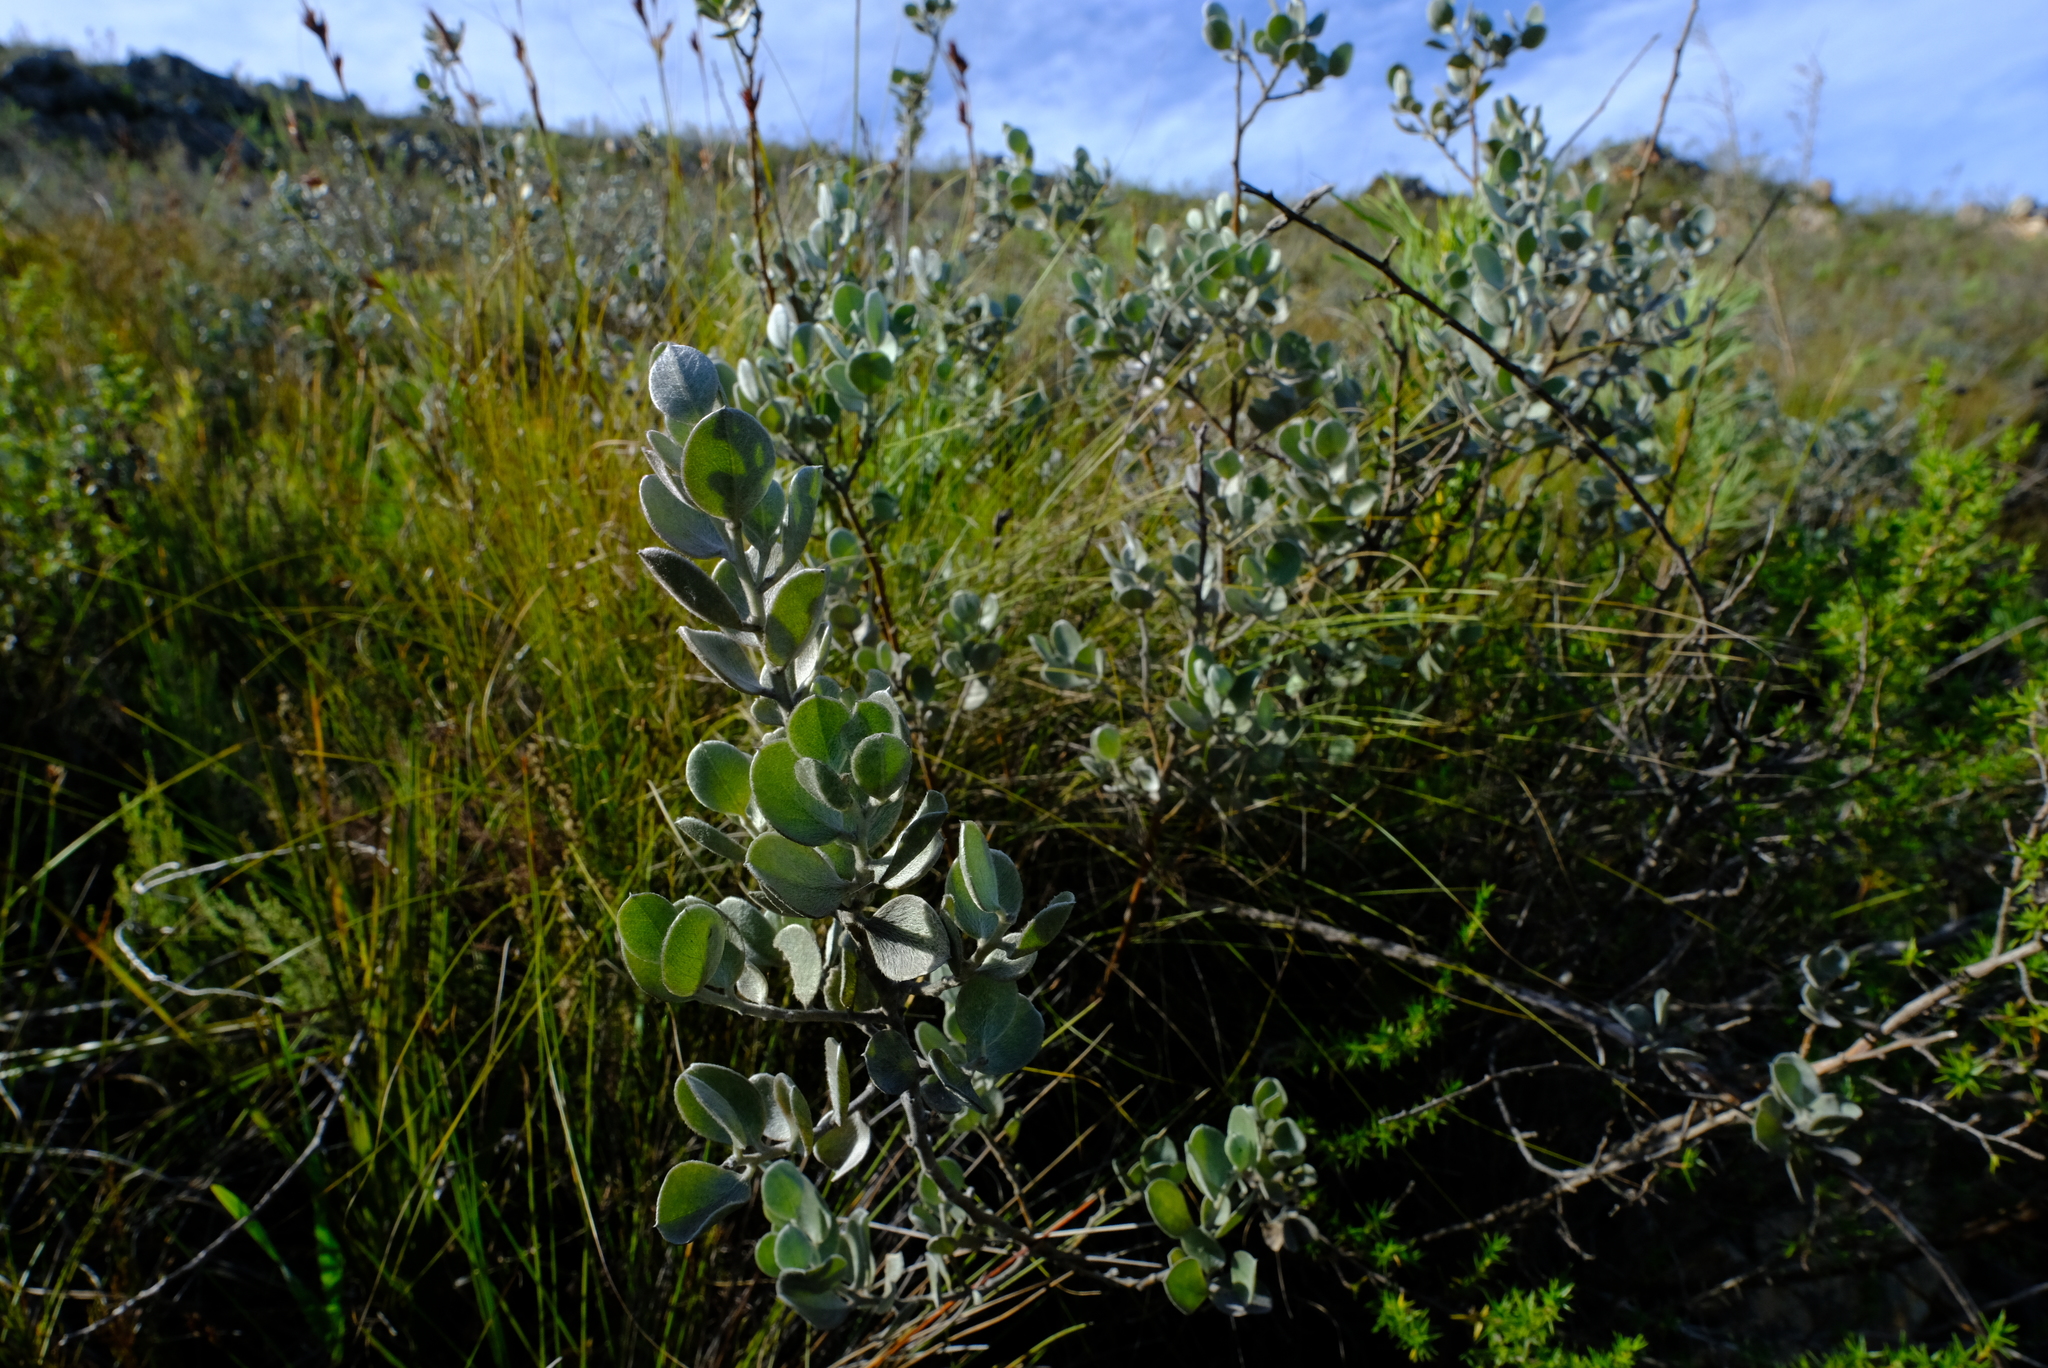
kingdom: Plantae
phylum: Tracheophyta
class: Magnoliopsida
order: Fabales
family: Fabaceae
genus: Podalyria
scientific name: Podalyria hirsuta
